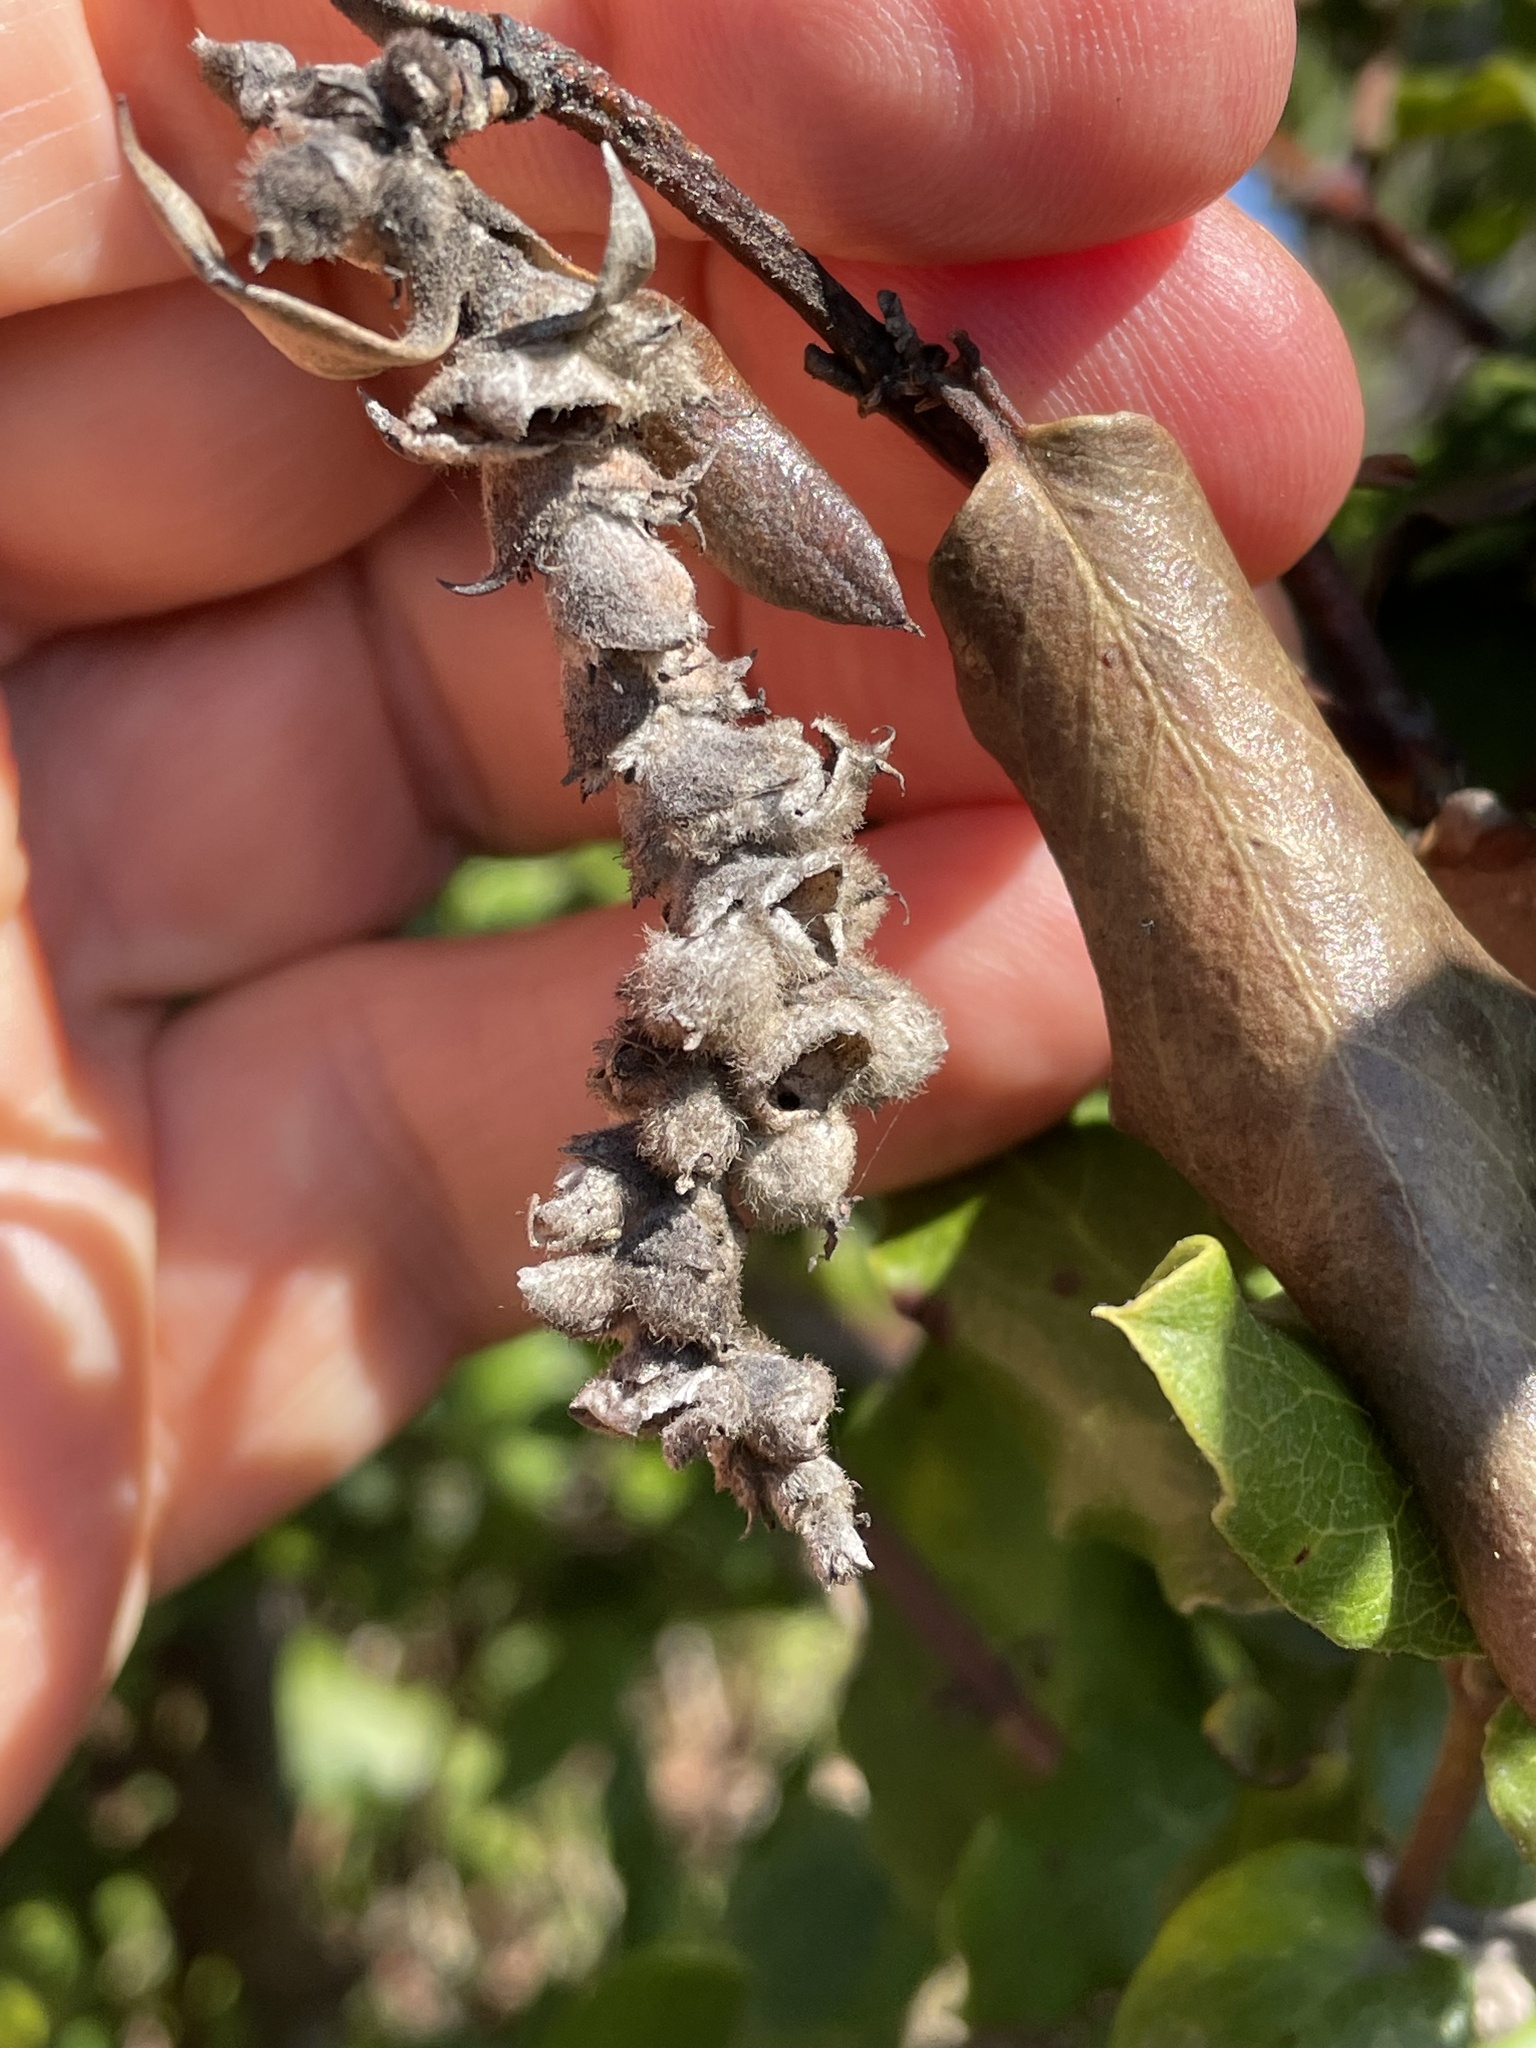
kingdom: Plantae
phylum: Tracheophyta
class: Magnoliopsida
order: Garryales
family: Garryaceae
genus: Garrya
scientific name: Garrya elliptica
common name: Silk-tassel
